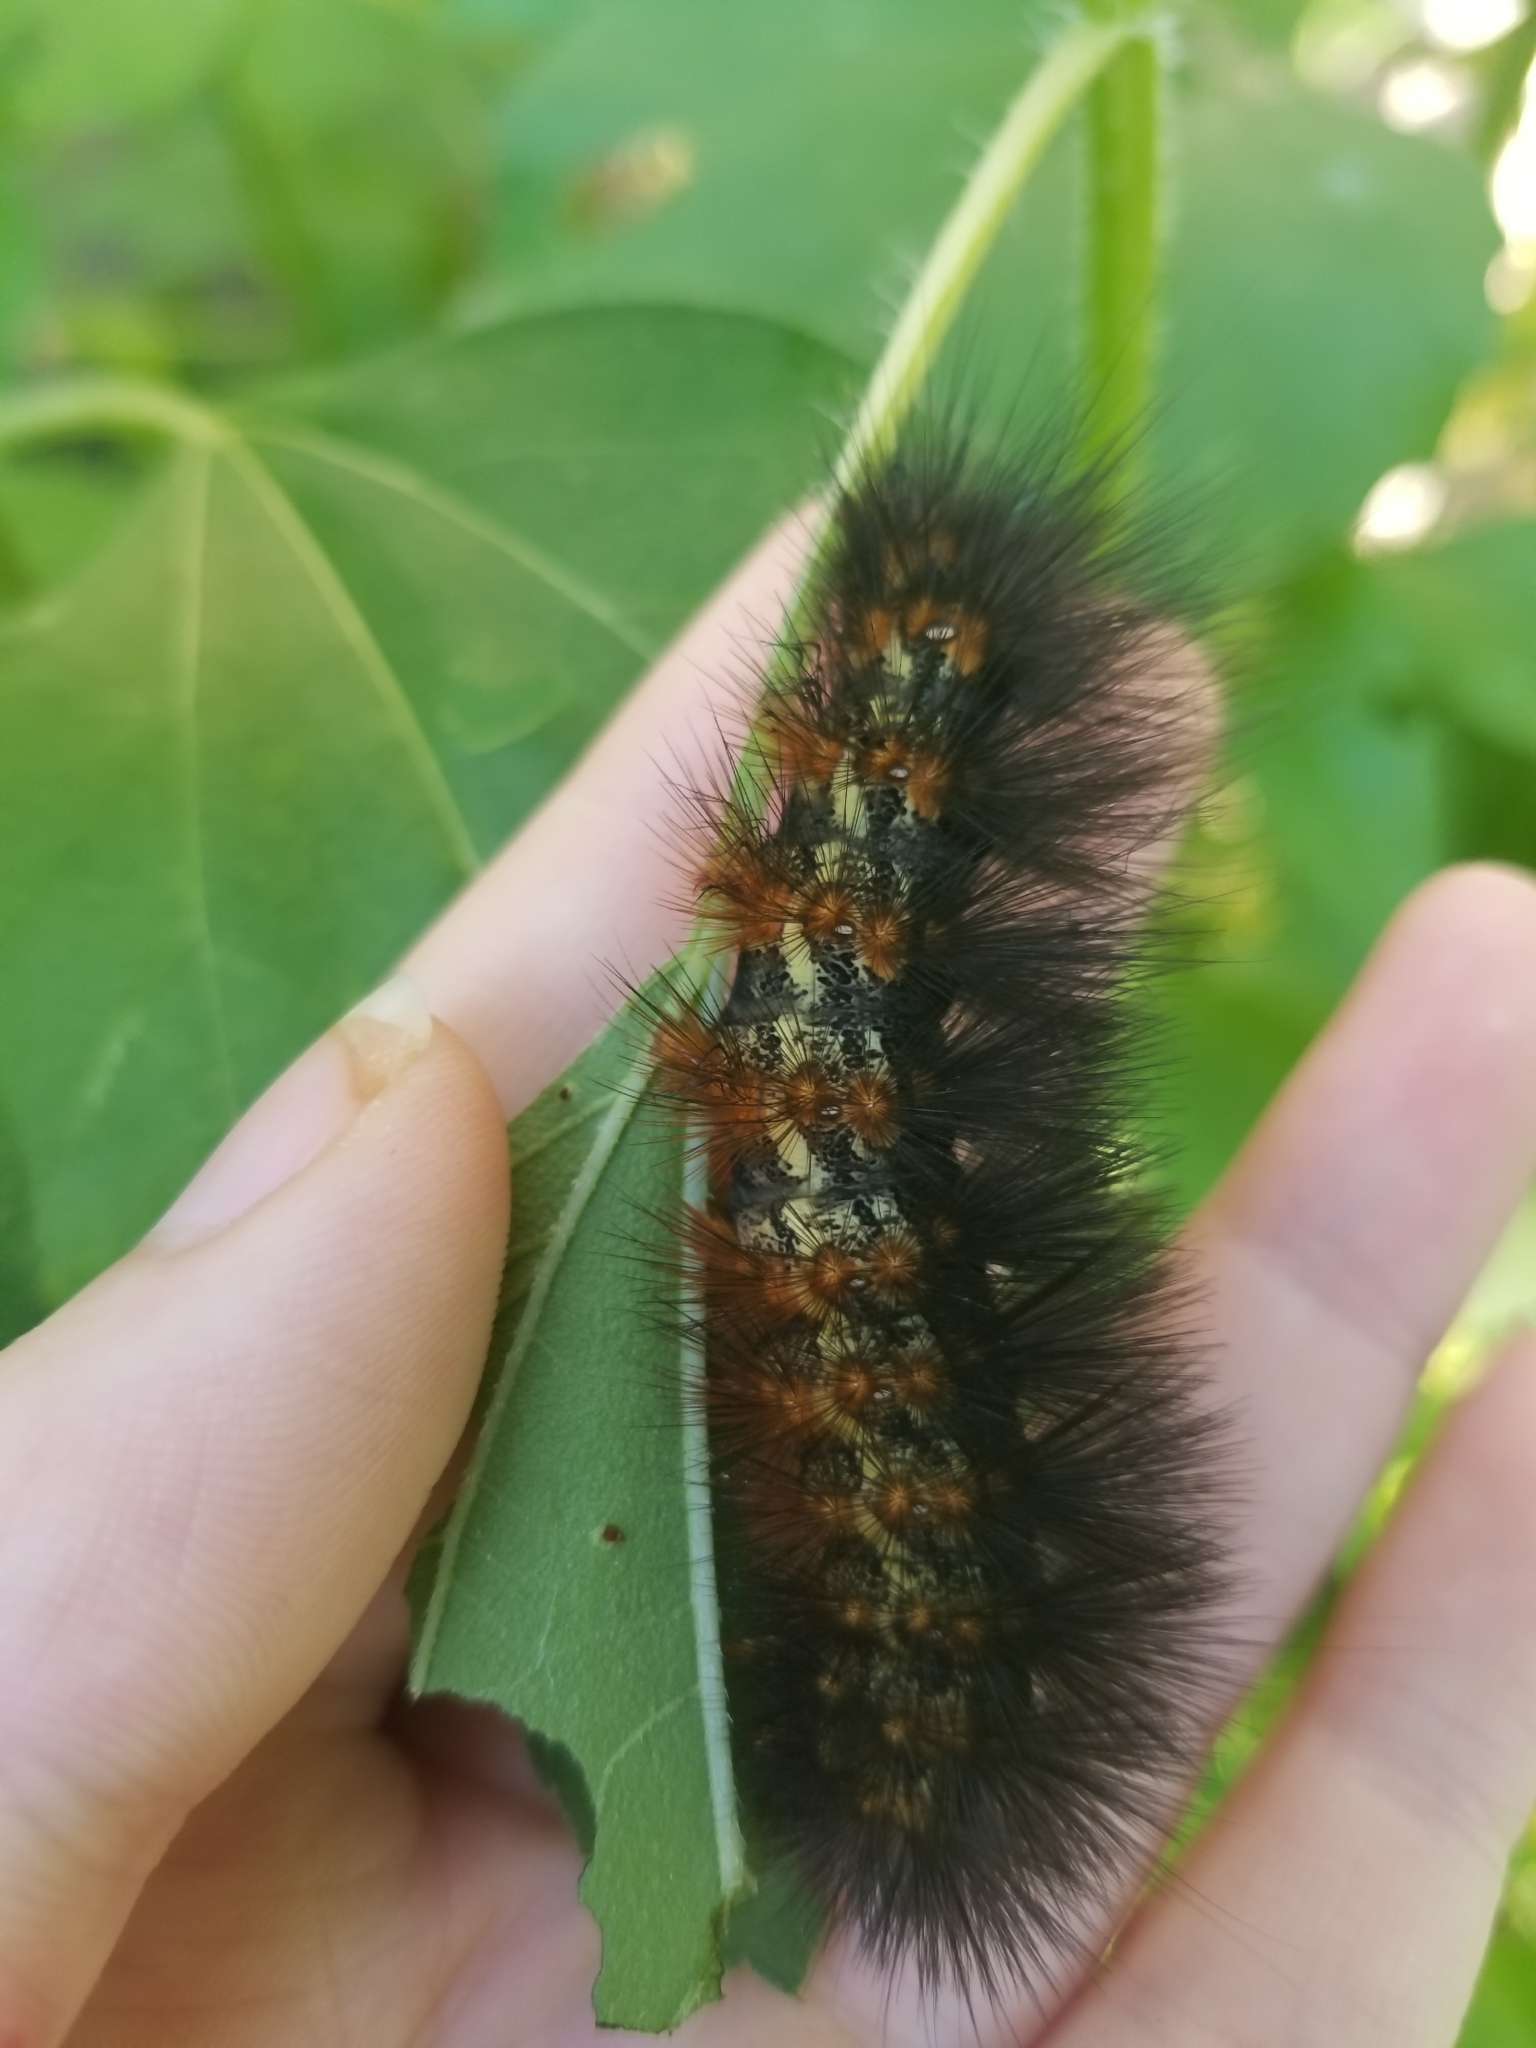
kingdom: Animalia
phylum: Arthropoda
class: Insecta
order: Lepidoptera
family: Erebidae
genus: Estigmene
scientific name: Estigmene acrea
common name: Salt marsh moth
